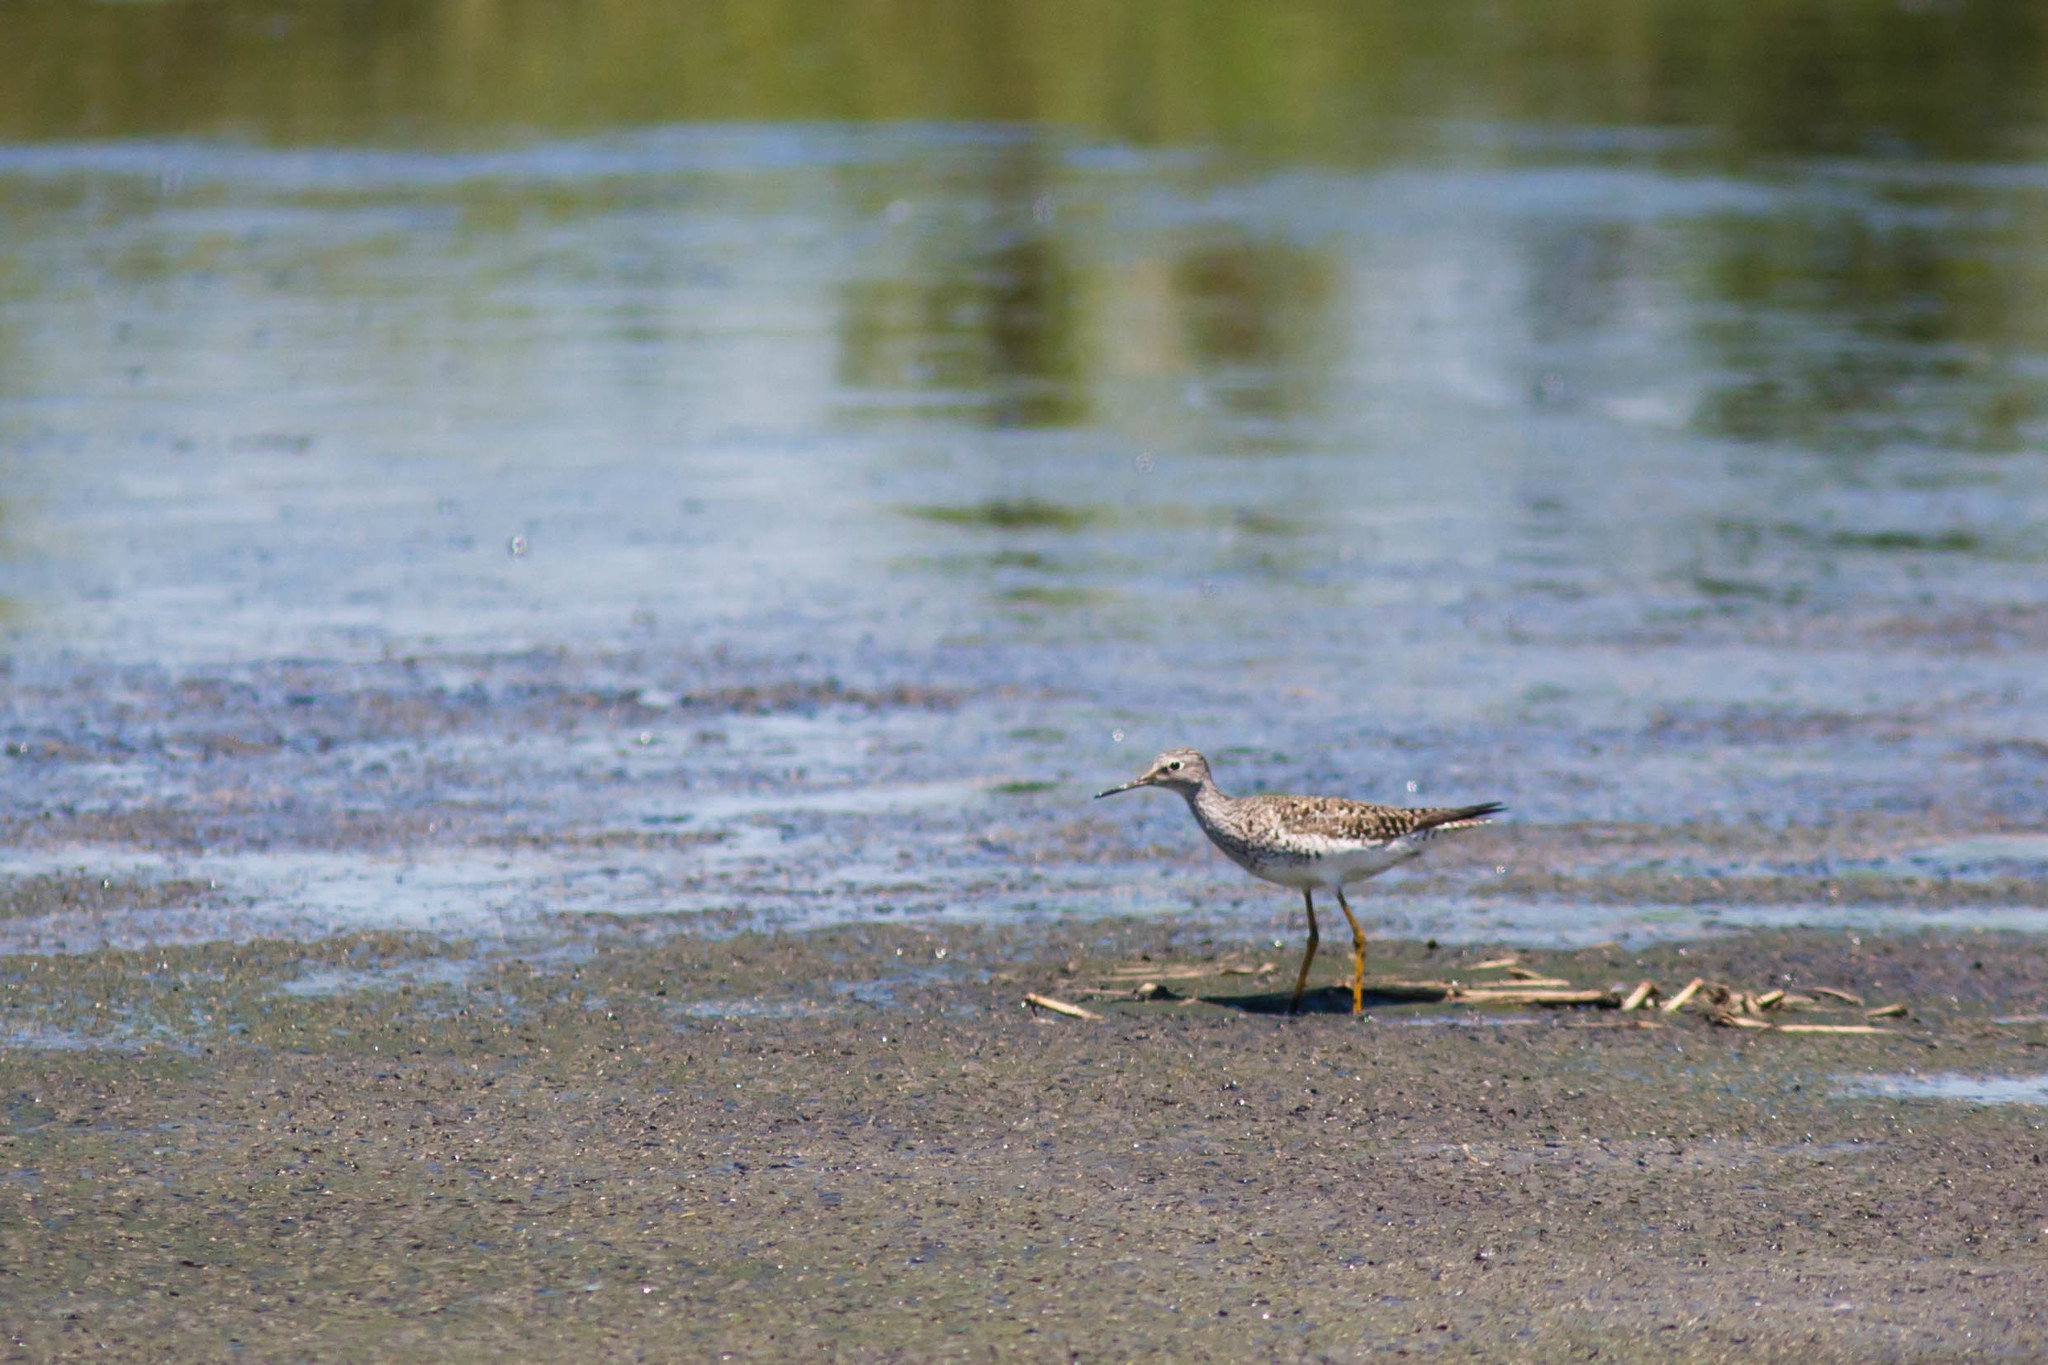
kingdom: Animalia
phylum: Chordata
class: Aves
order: Charadriiformes
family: Scolopacidae
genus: Tringa
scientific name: Tringa flavipes
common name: Lesser yellowlegs
